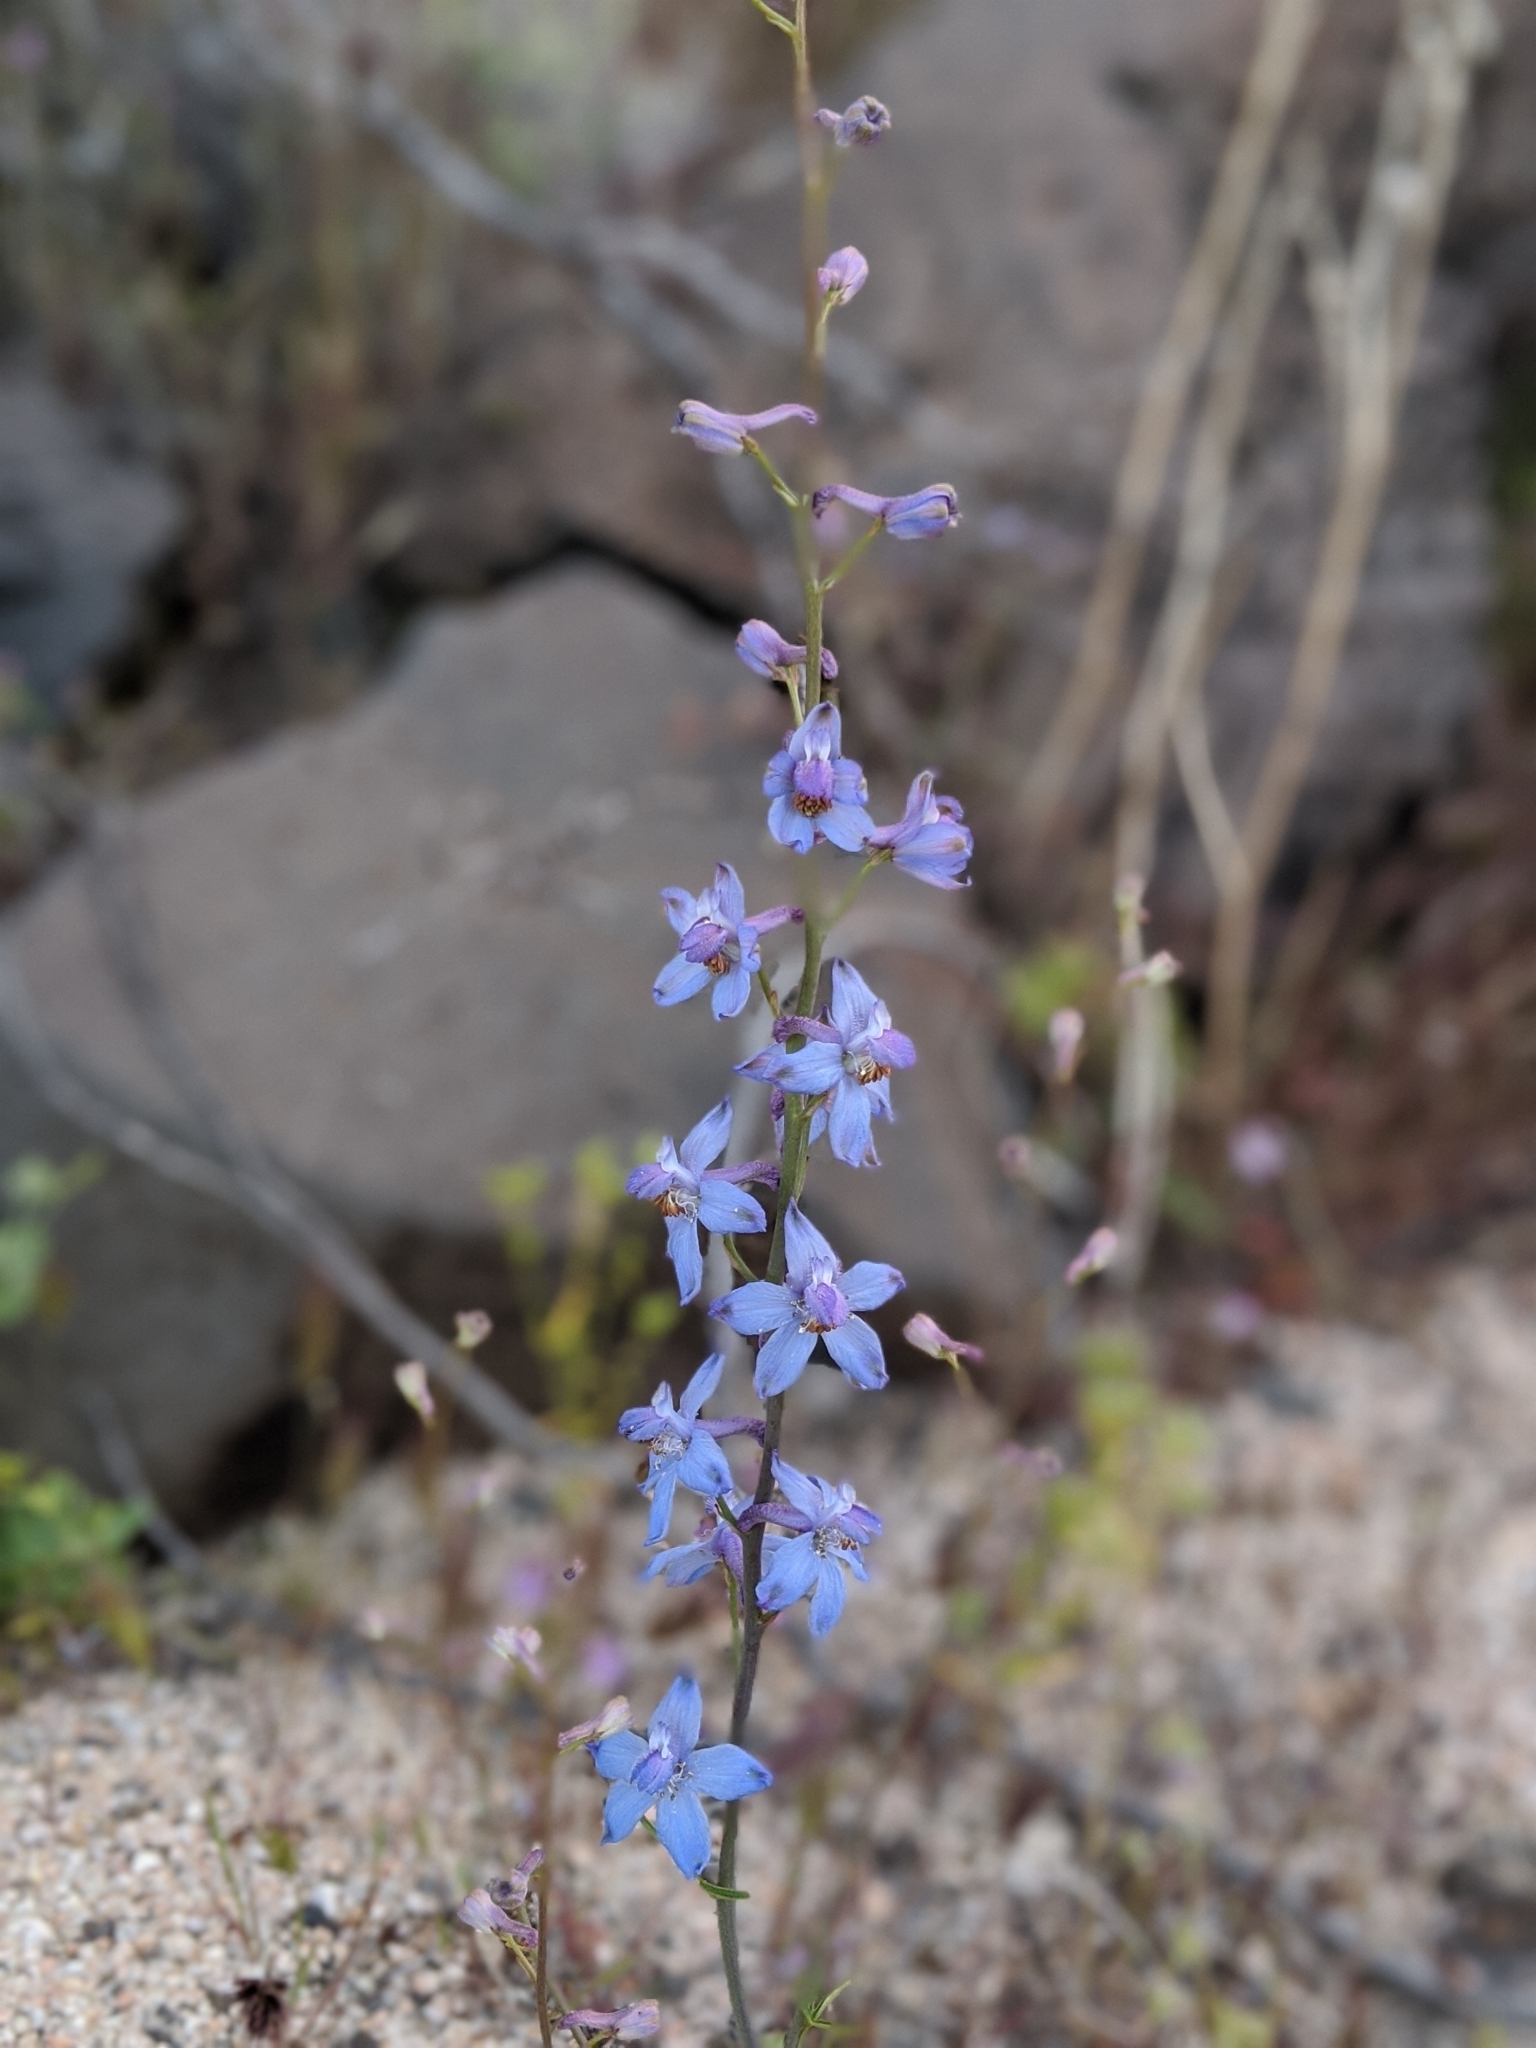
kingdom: Plantae
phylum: Tracheophyta
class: Magnoliopsida
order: Ranunculales
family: Ranunculaceae
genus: Delphinium
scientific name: Delphinium parishii
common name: Apache larkspur
